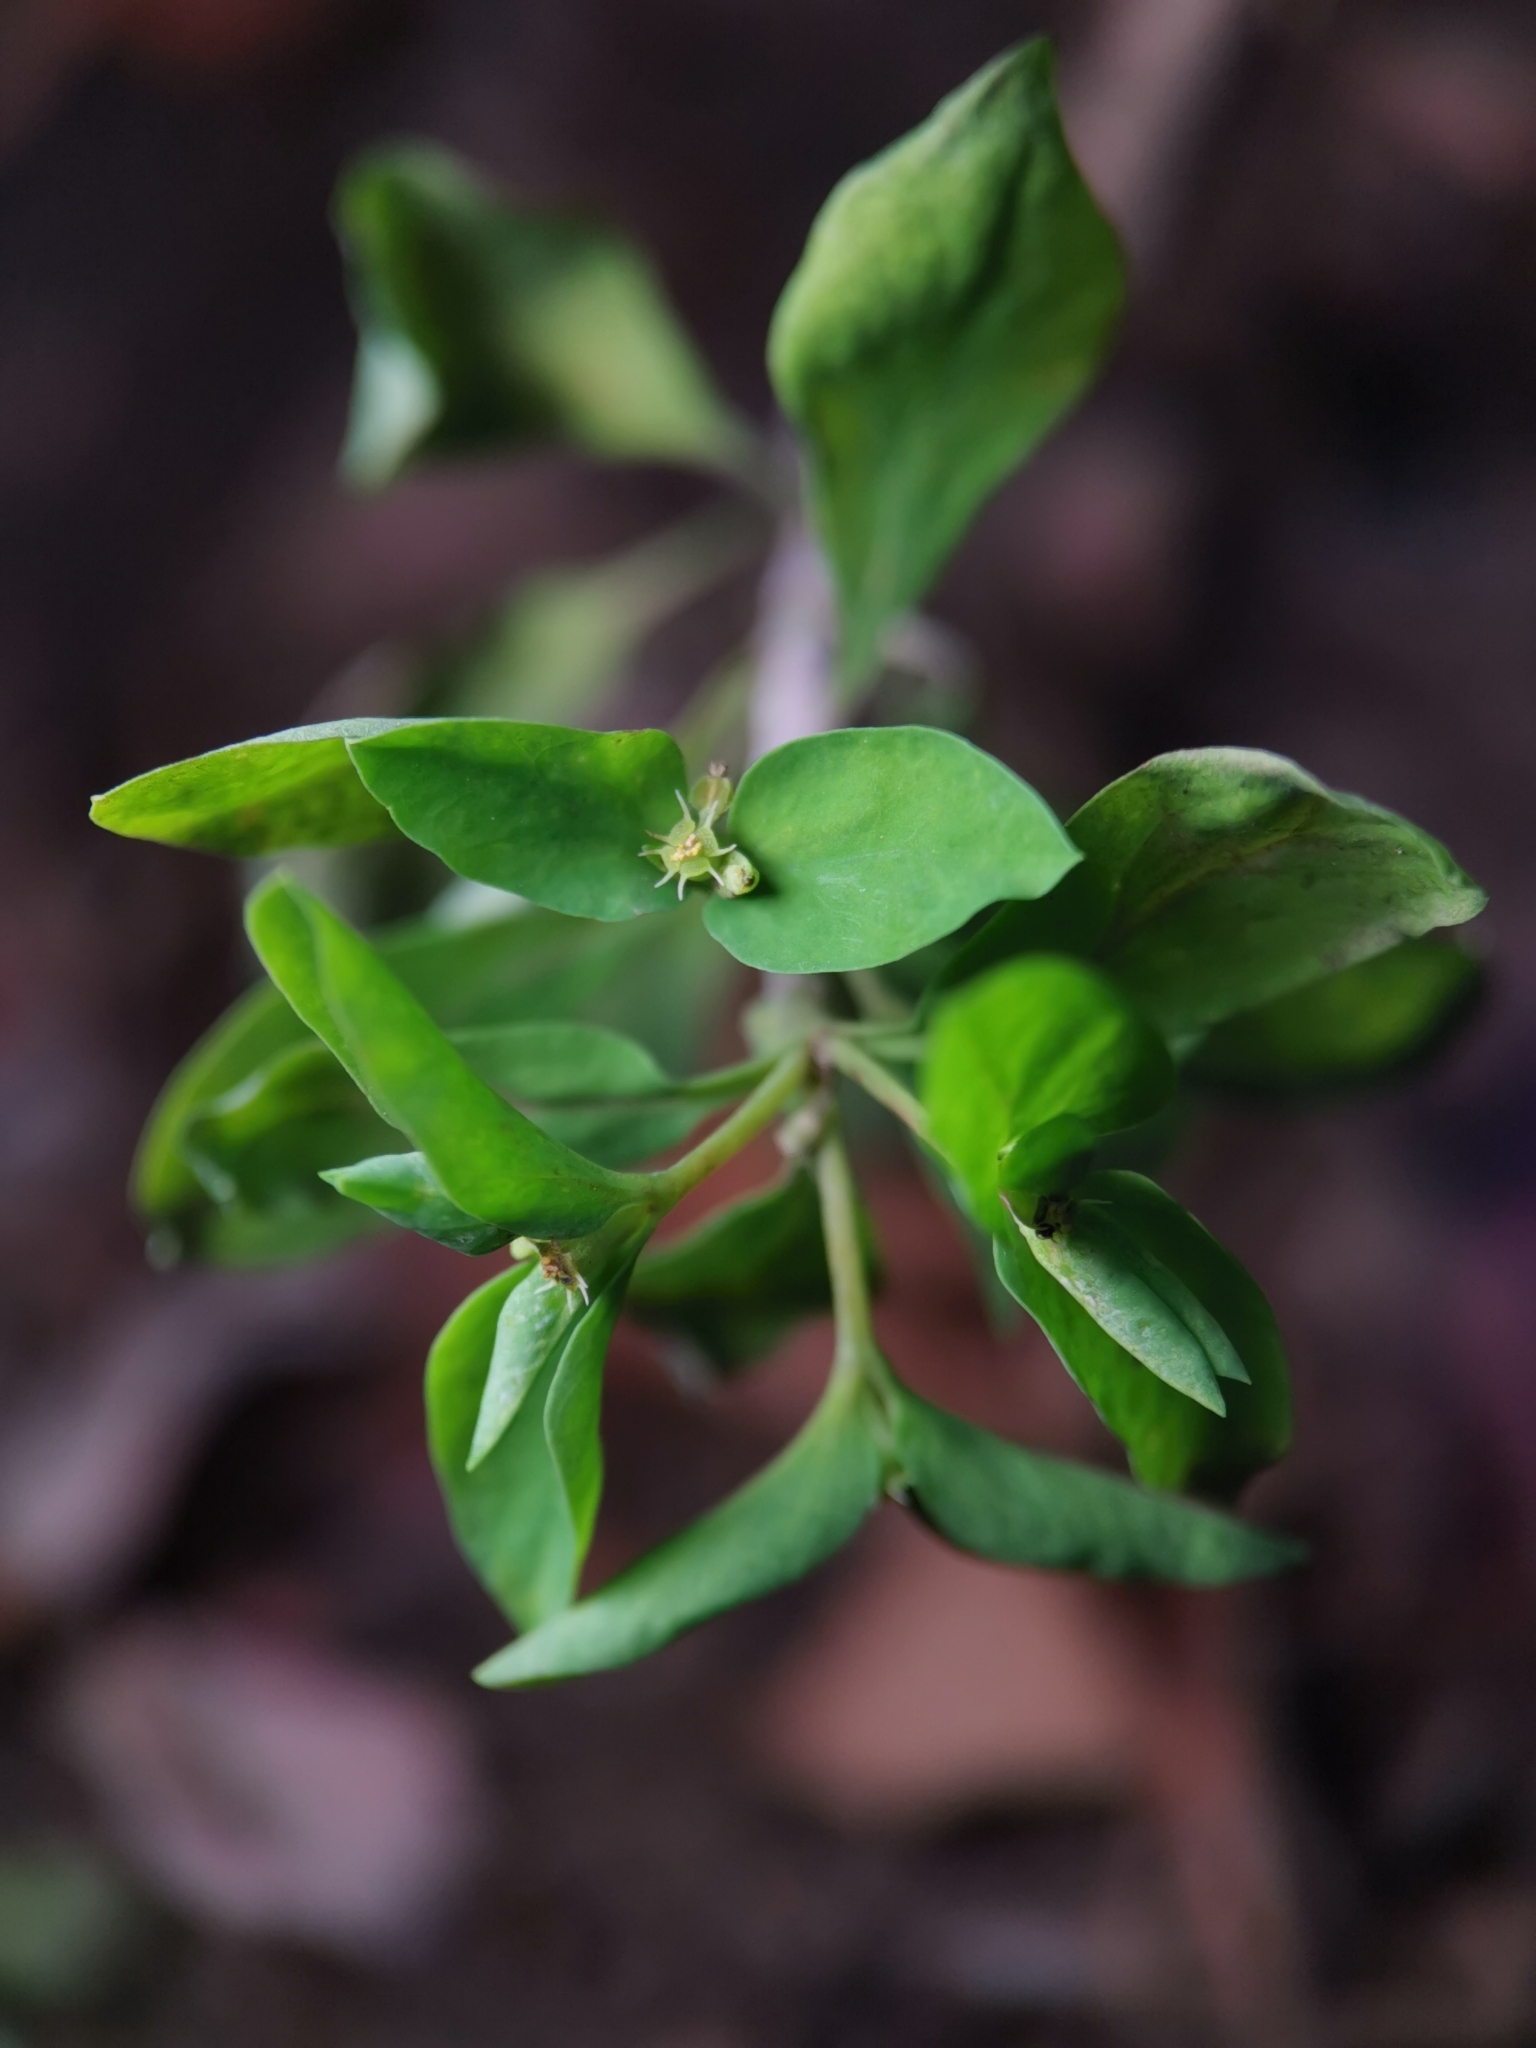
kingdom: Plantae
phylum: Tracheophyta
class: Magnoliopsida
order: Malpighiales
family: Euphorbiaceae
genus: Euphorbia
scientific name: Euphorbia peplus
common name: Petty spurge
